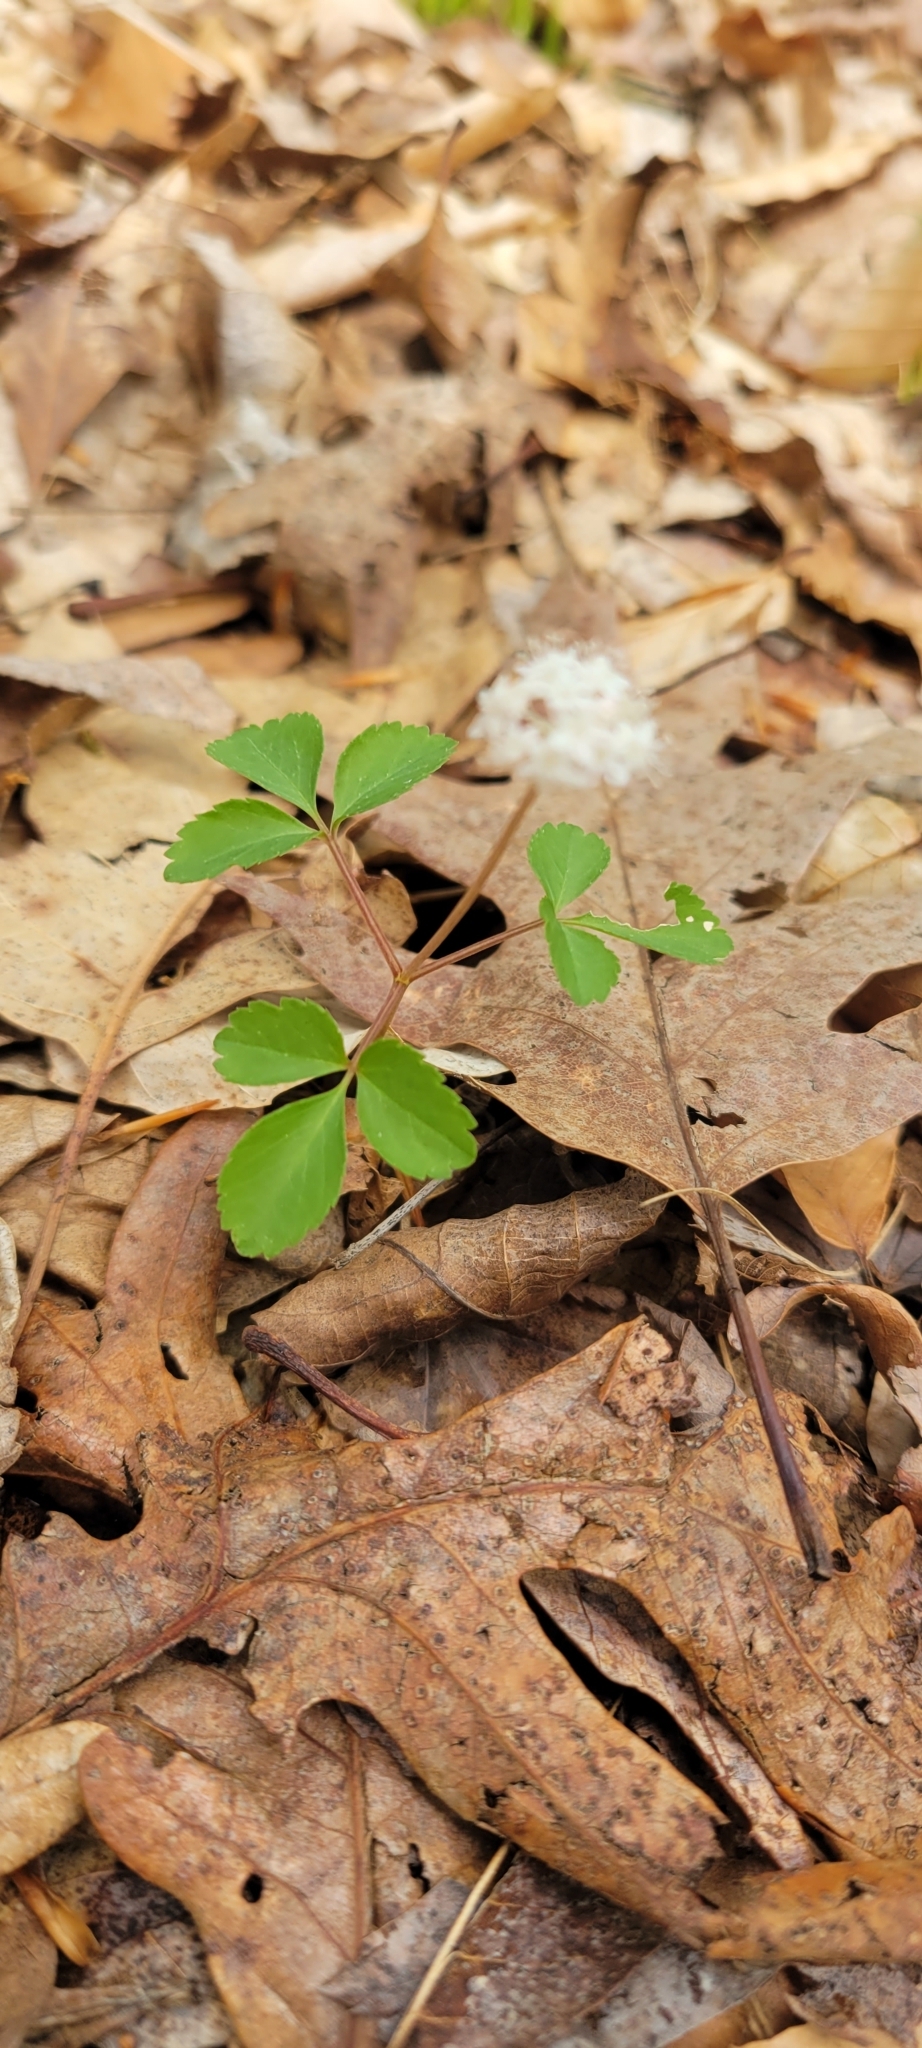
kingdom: Plantae
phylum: Tracheophyta
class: Magnoliopsida
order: Apiales
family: Araliaceae
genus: Panax
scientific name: Panax trifolius
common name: Dwarf ginseng
